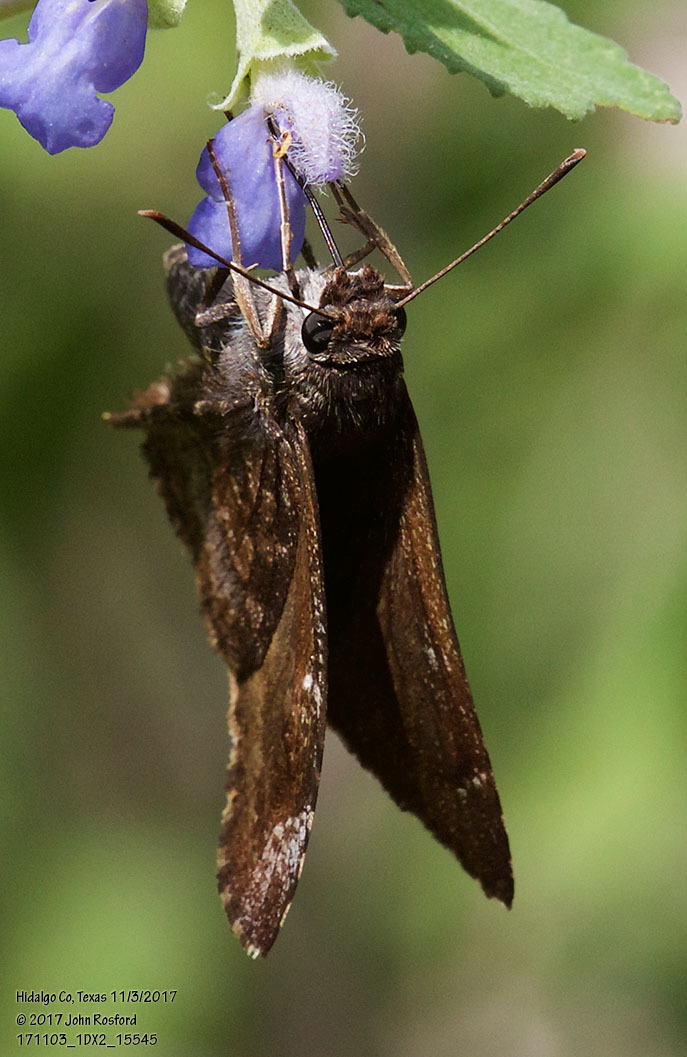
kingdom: Animalia
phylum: Arthropoda
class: Insecta
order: Lepidoptera
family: Hesperiidae
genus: Caicella
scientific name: Caicella calchas
